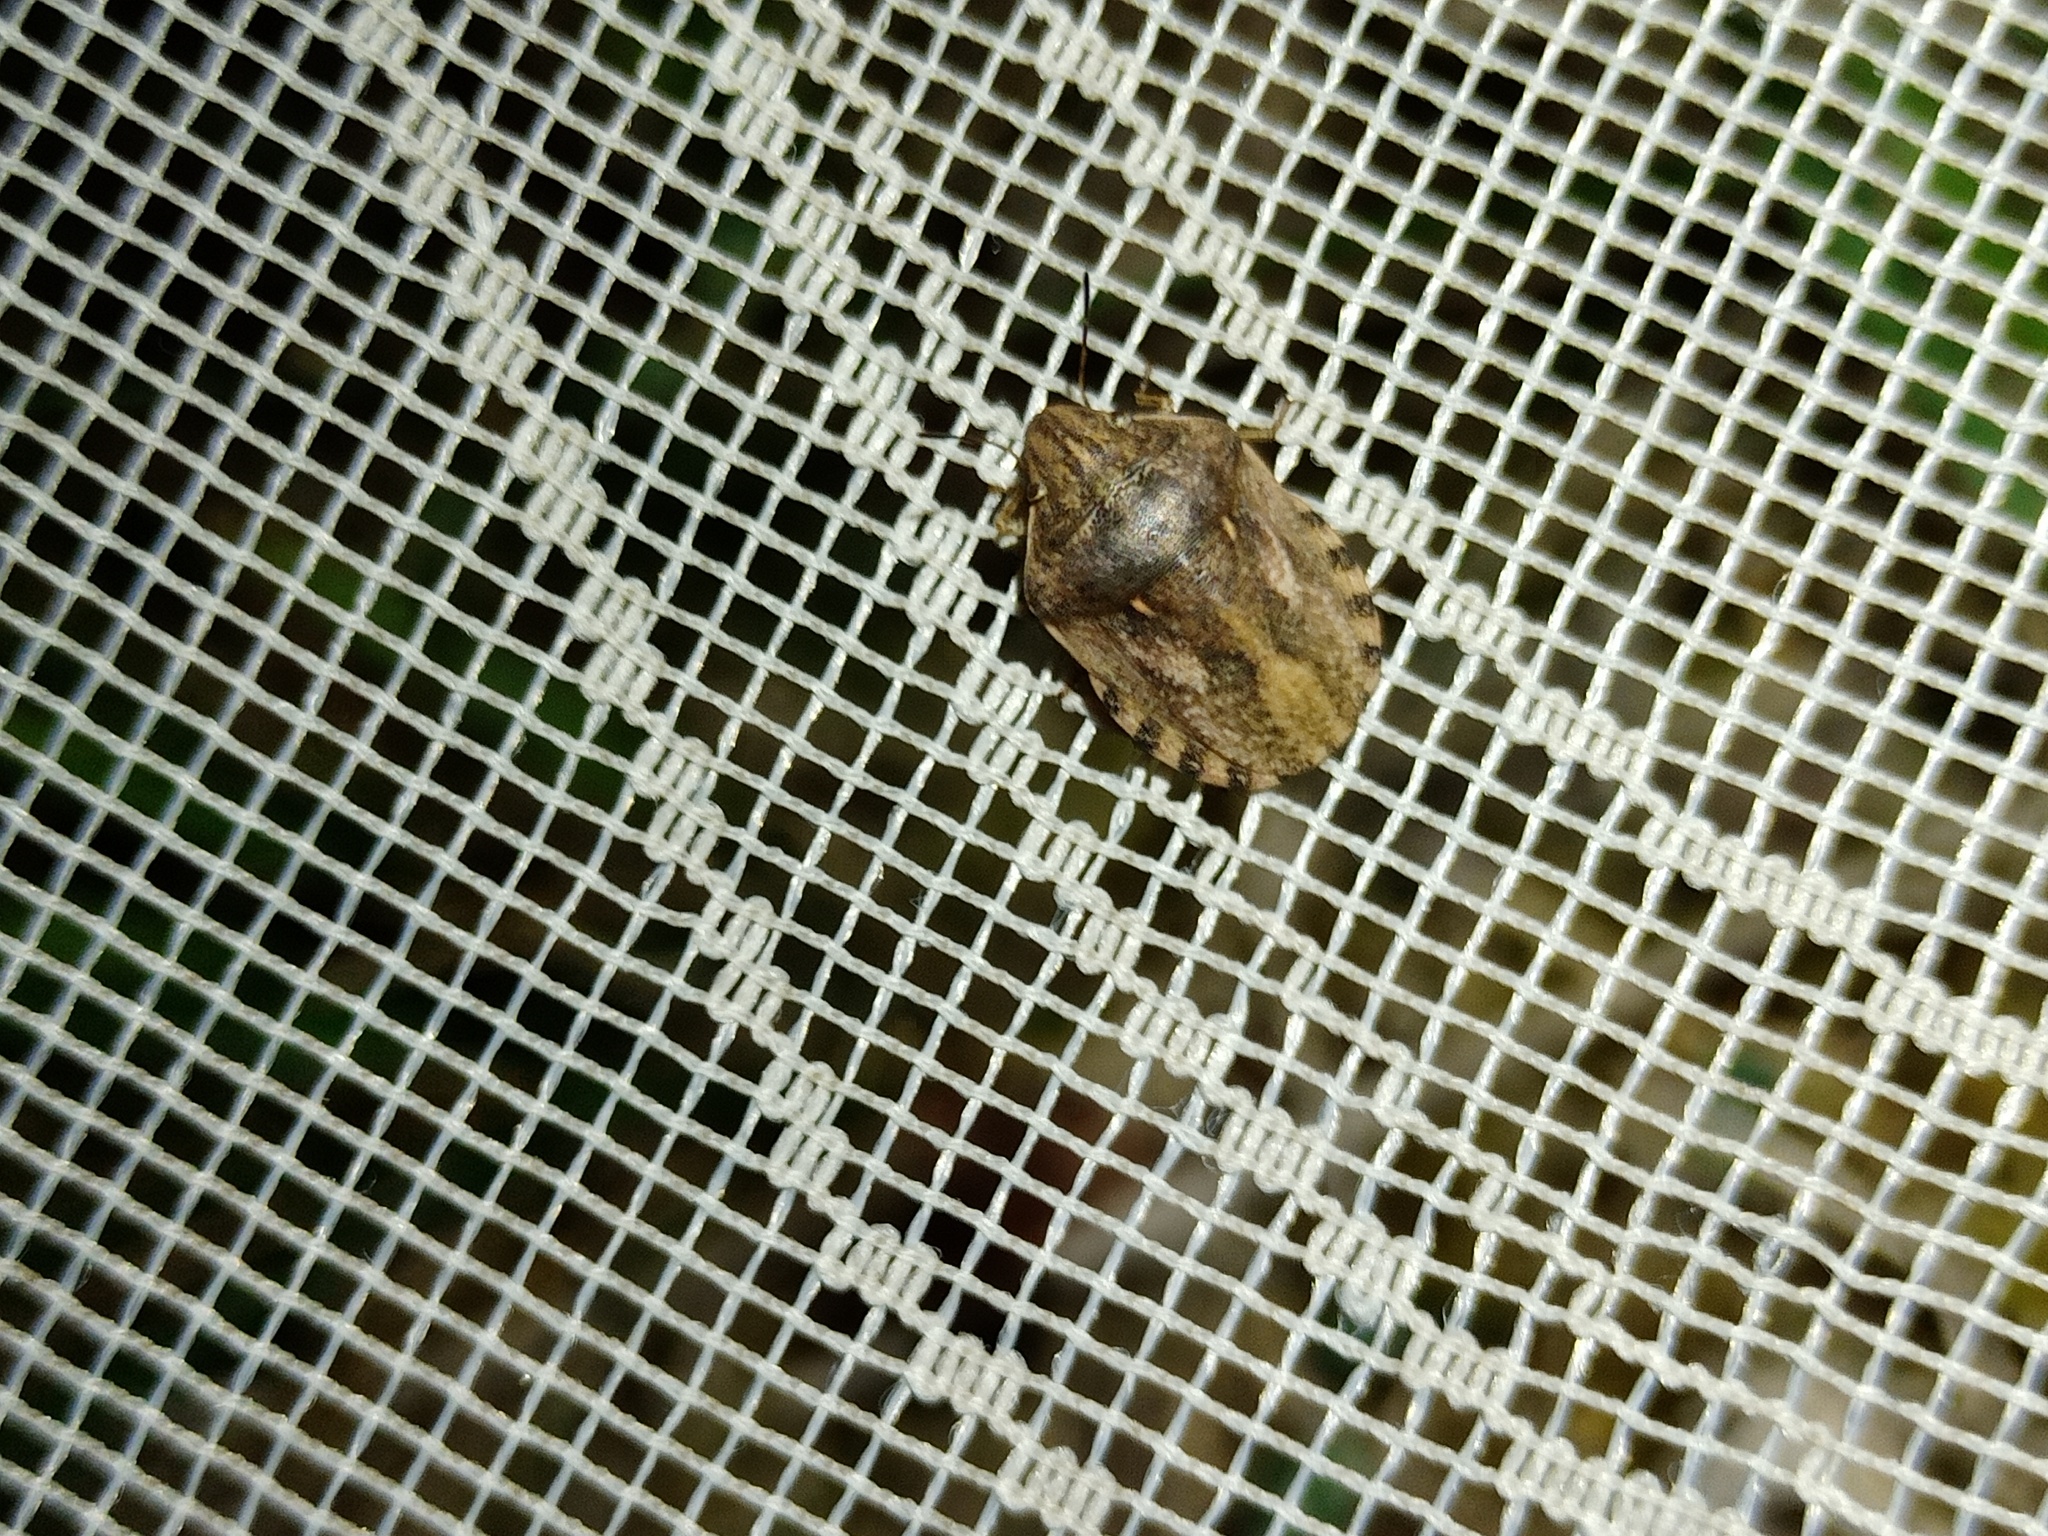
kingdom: Animalia
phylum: Arthropoda
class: Insecta
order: Hemiptera
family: Scutelleridae
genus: Eurygaster
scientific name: Eurygaster maura
